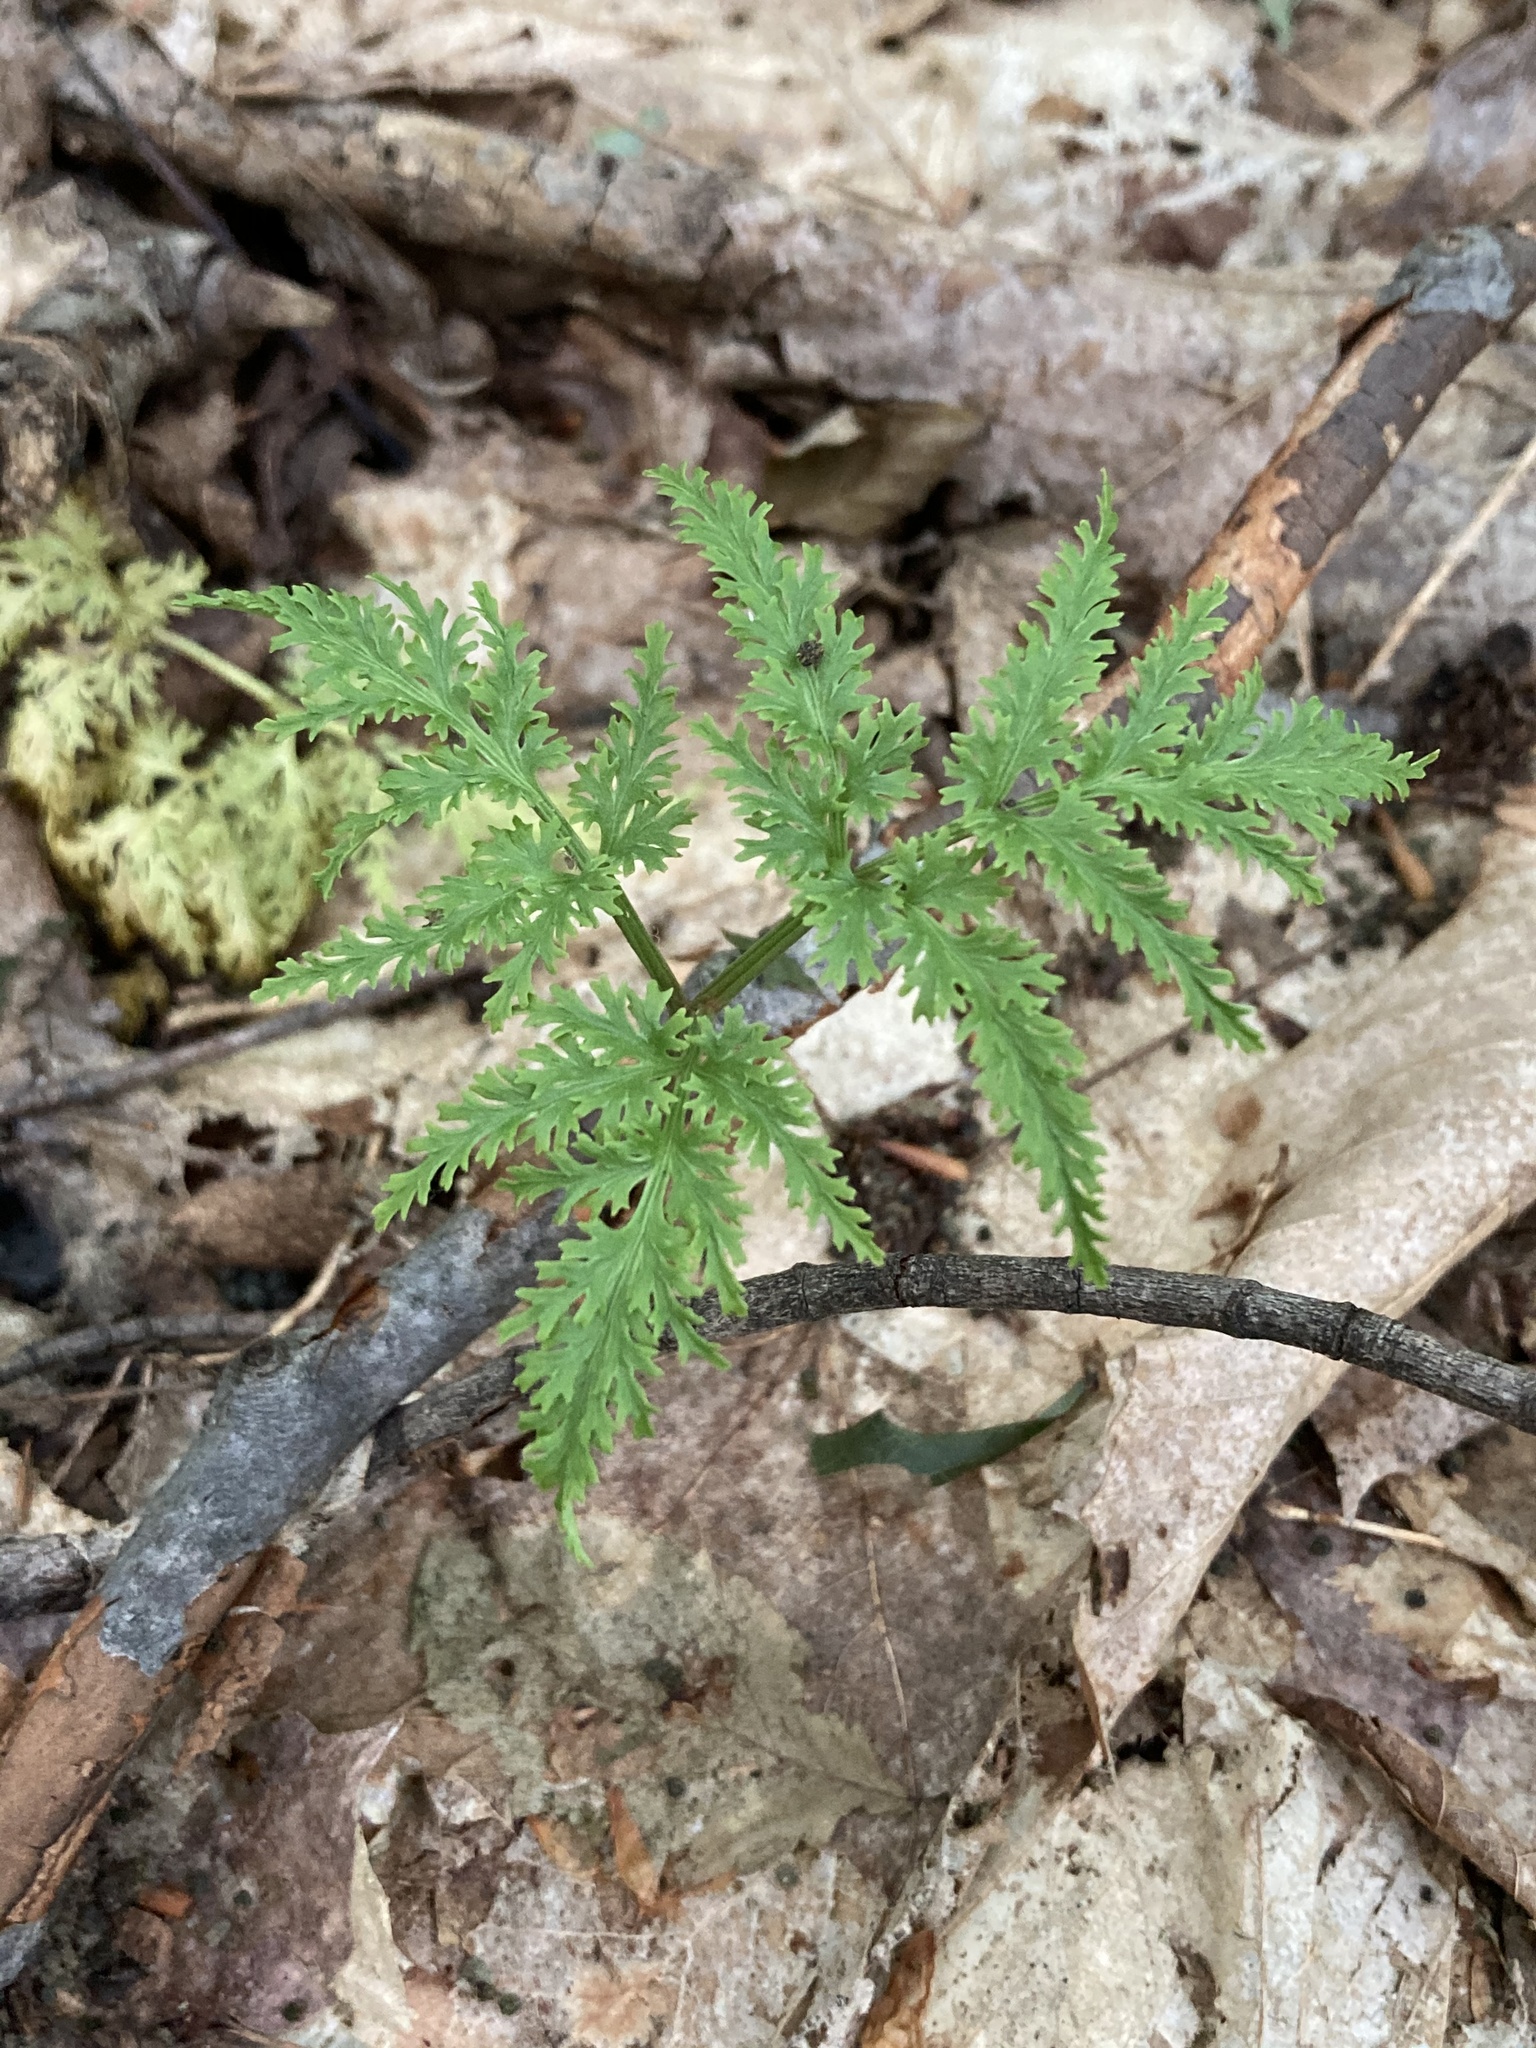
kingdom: Plantae
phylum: Tracheophyta
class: Polypodiopsida
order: Ophioglossales
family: Ophioglossaceae
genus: Sceptridium
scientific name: Sceptridium dissectum
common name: Cut-leaved grapefern
